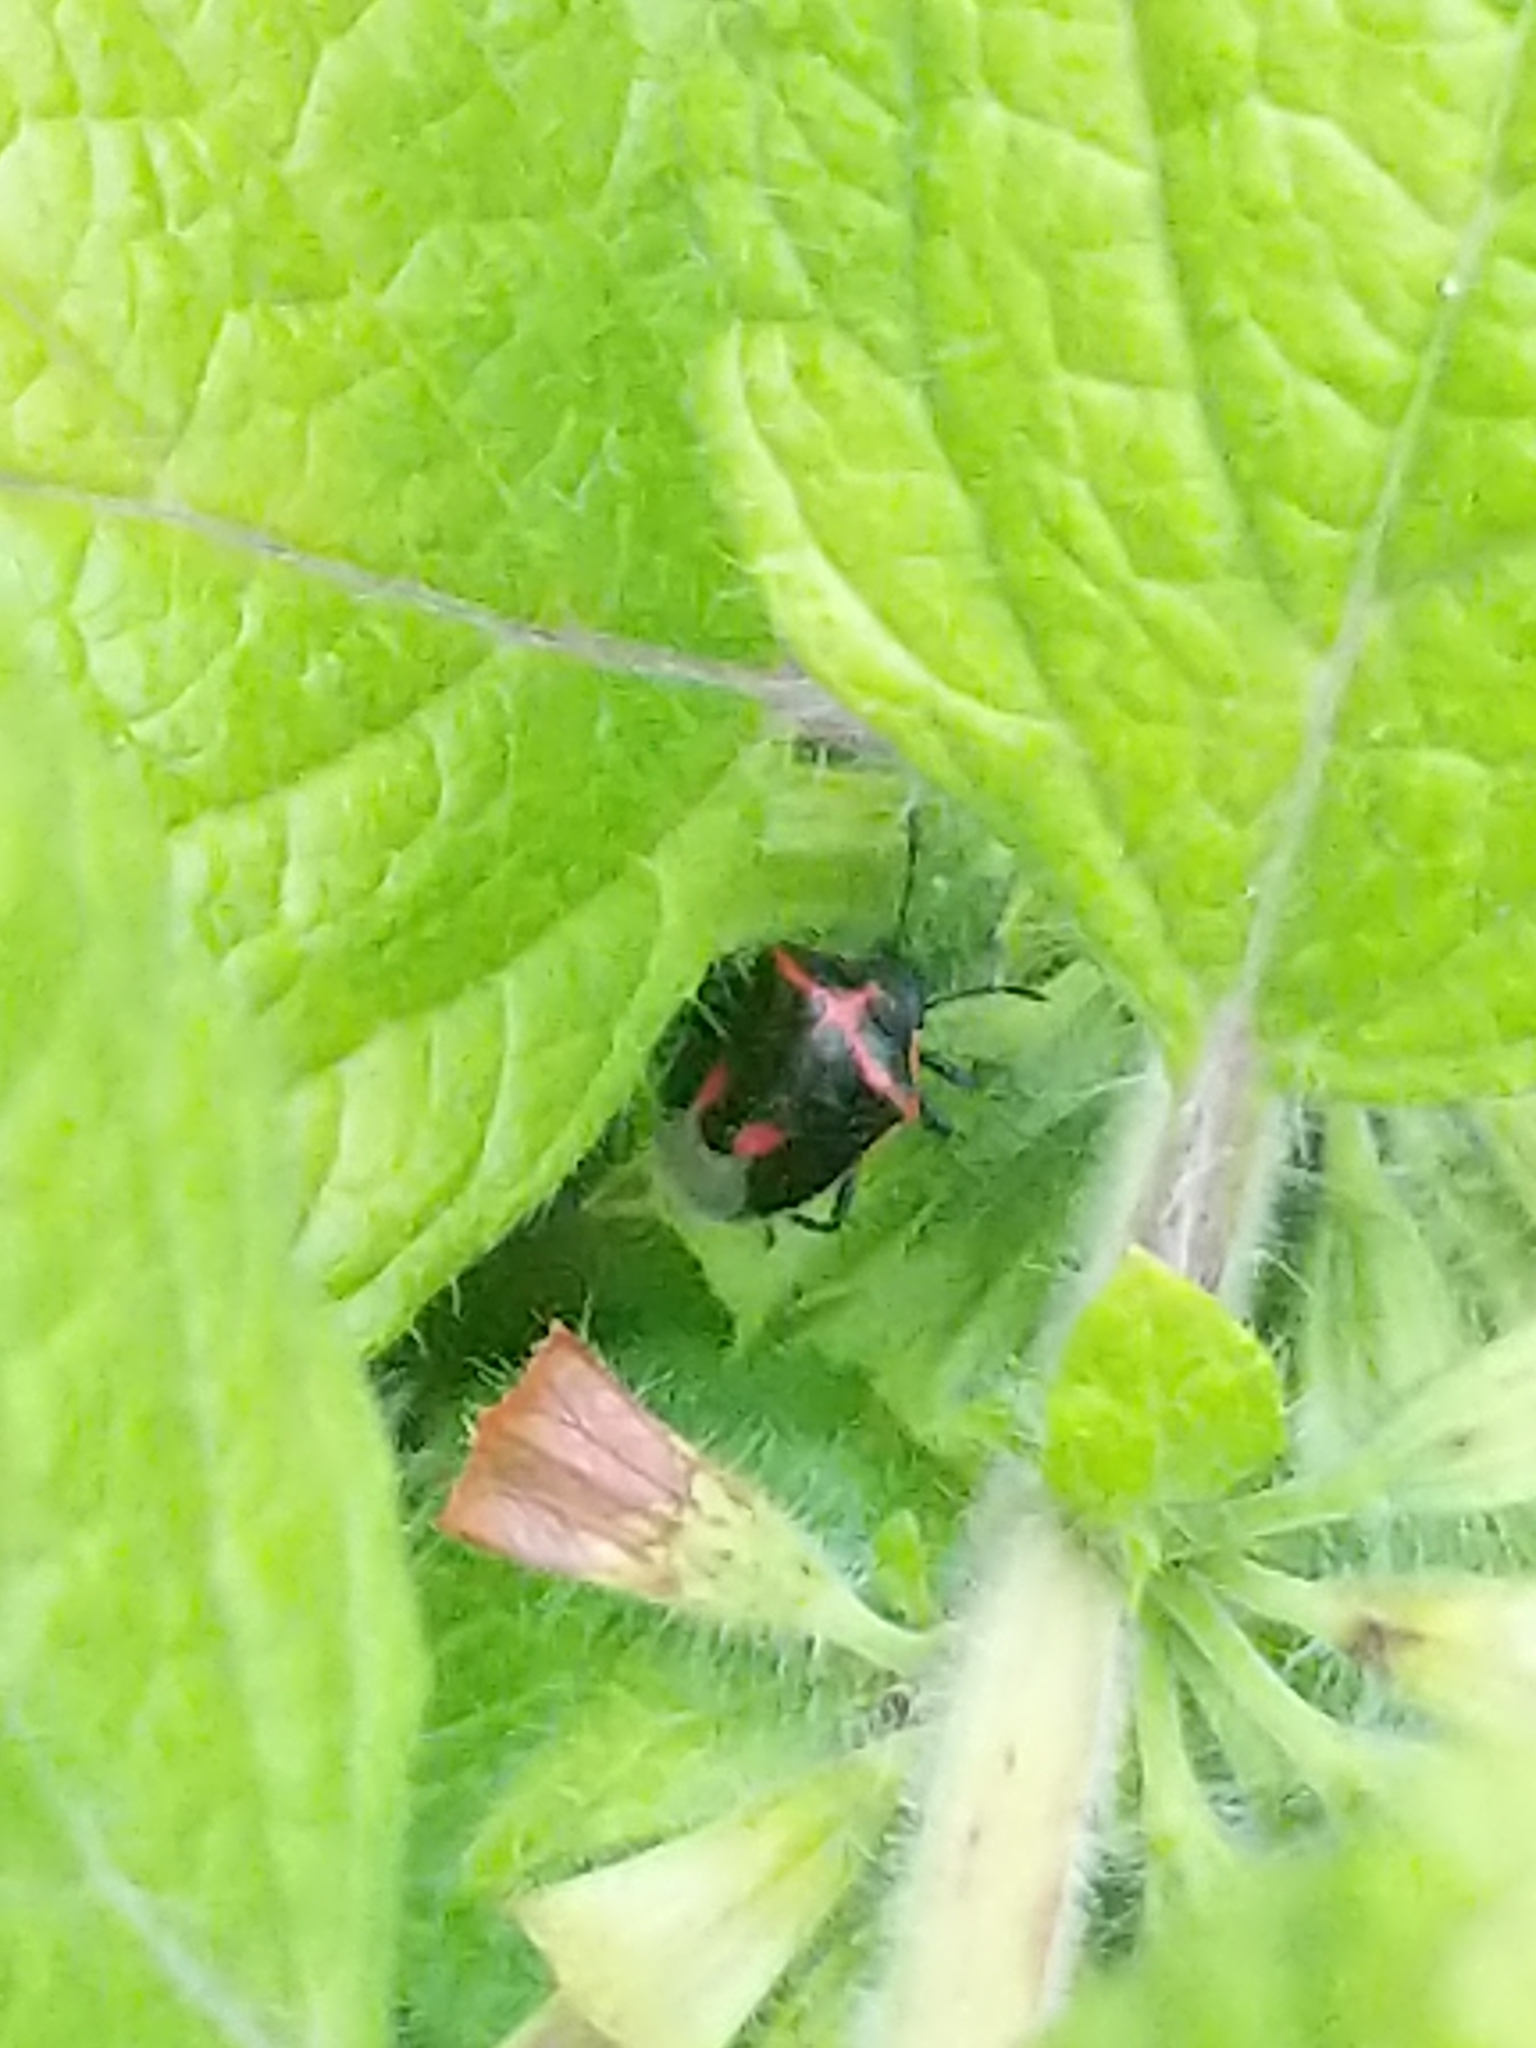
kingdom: Animalia
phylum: Arthropoda
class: Insecta
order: Hemiptera
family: Pentatomidae
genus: Cosmopepla
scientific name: Cosmopepla lintneriana
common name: Twice-stabbed stink bug
